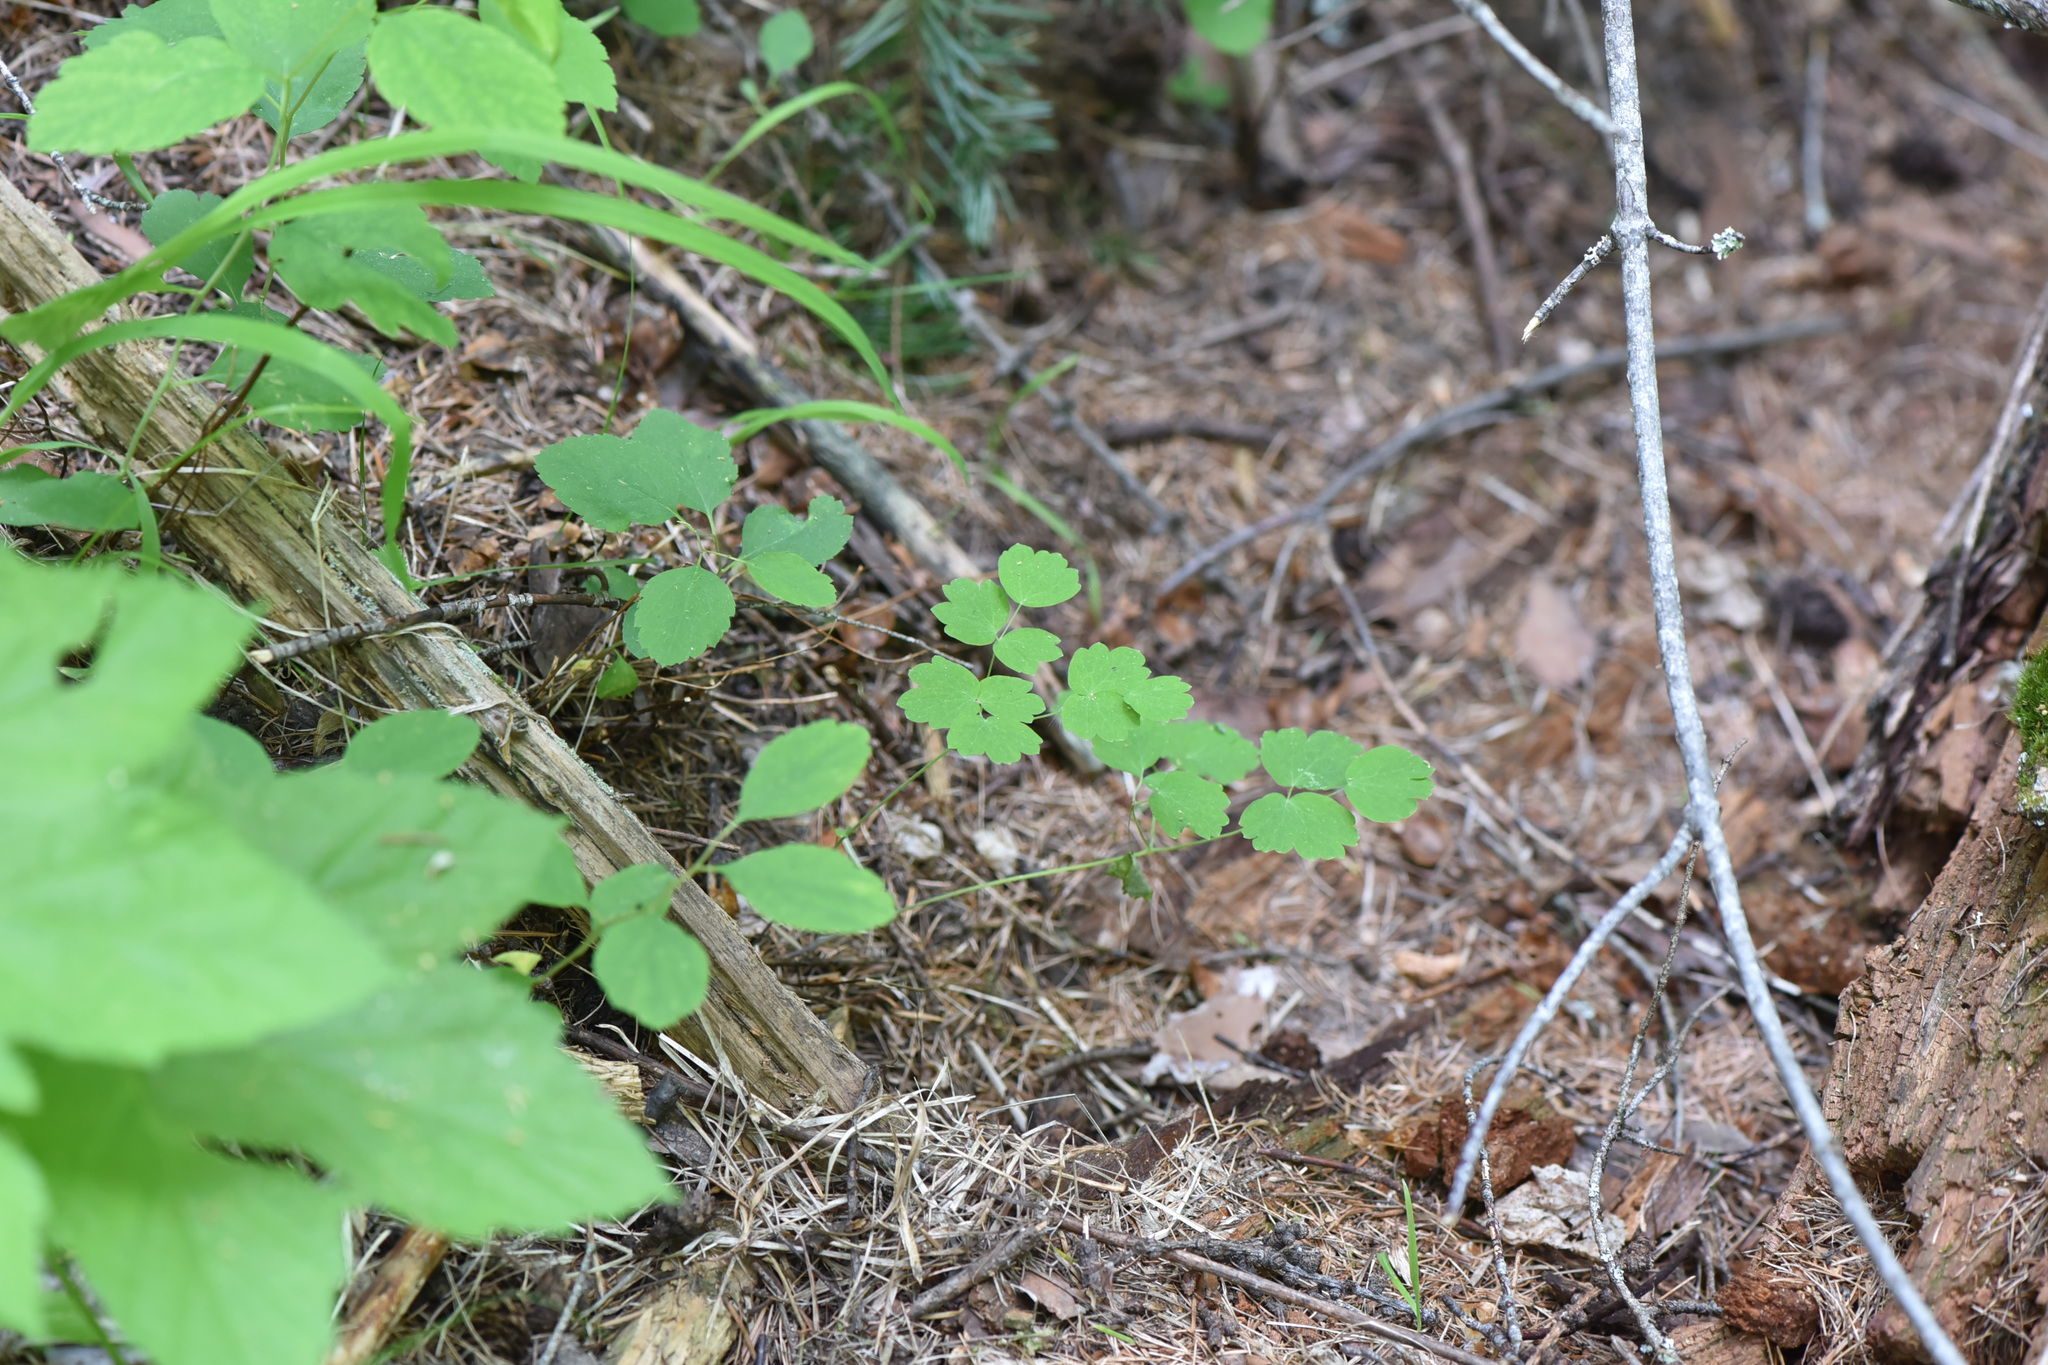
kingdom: Plantae
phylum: Tracheophyta
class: Magnoliopsida
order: Ranunculales
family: Ranunculaceae
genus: Thalictrum
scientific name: Thalictrum occidentale
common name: Western meadow-rue
